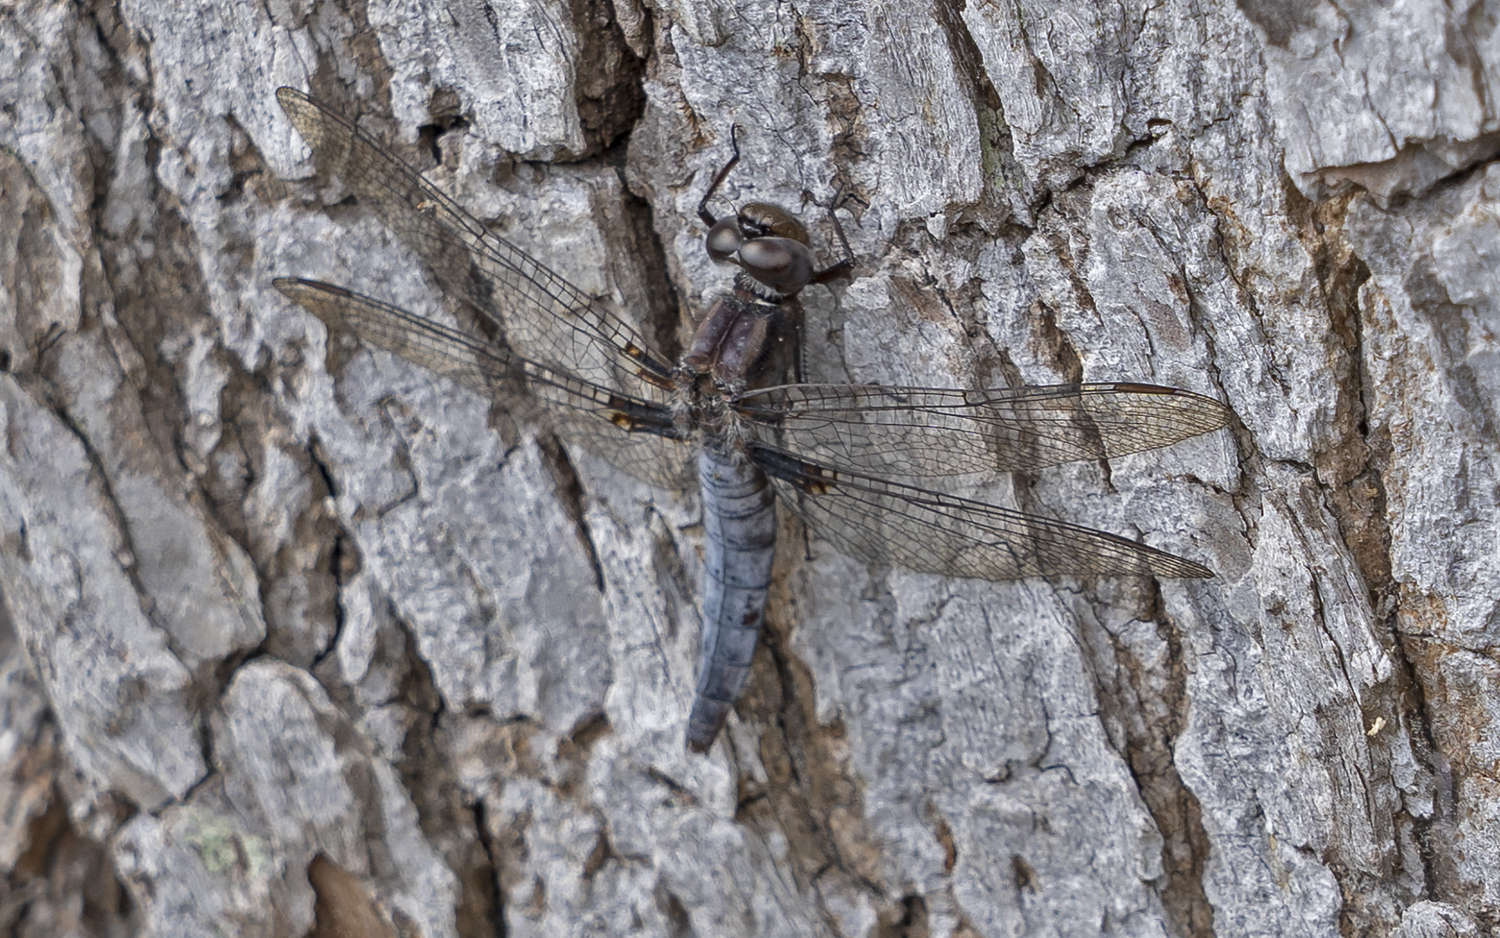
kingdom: Animalia
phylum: Arthropoda
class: Insecta
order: Odonata
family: Libellulidae
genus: Ladona
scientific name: Ladona deplanata
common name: Blue corporal
